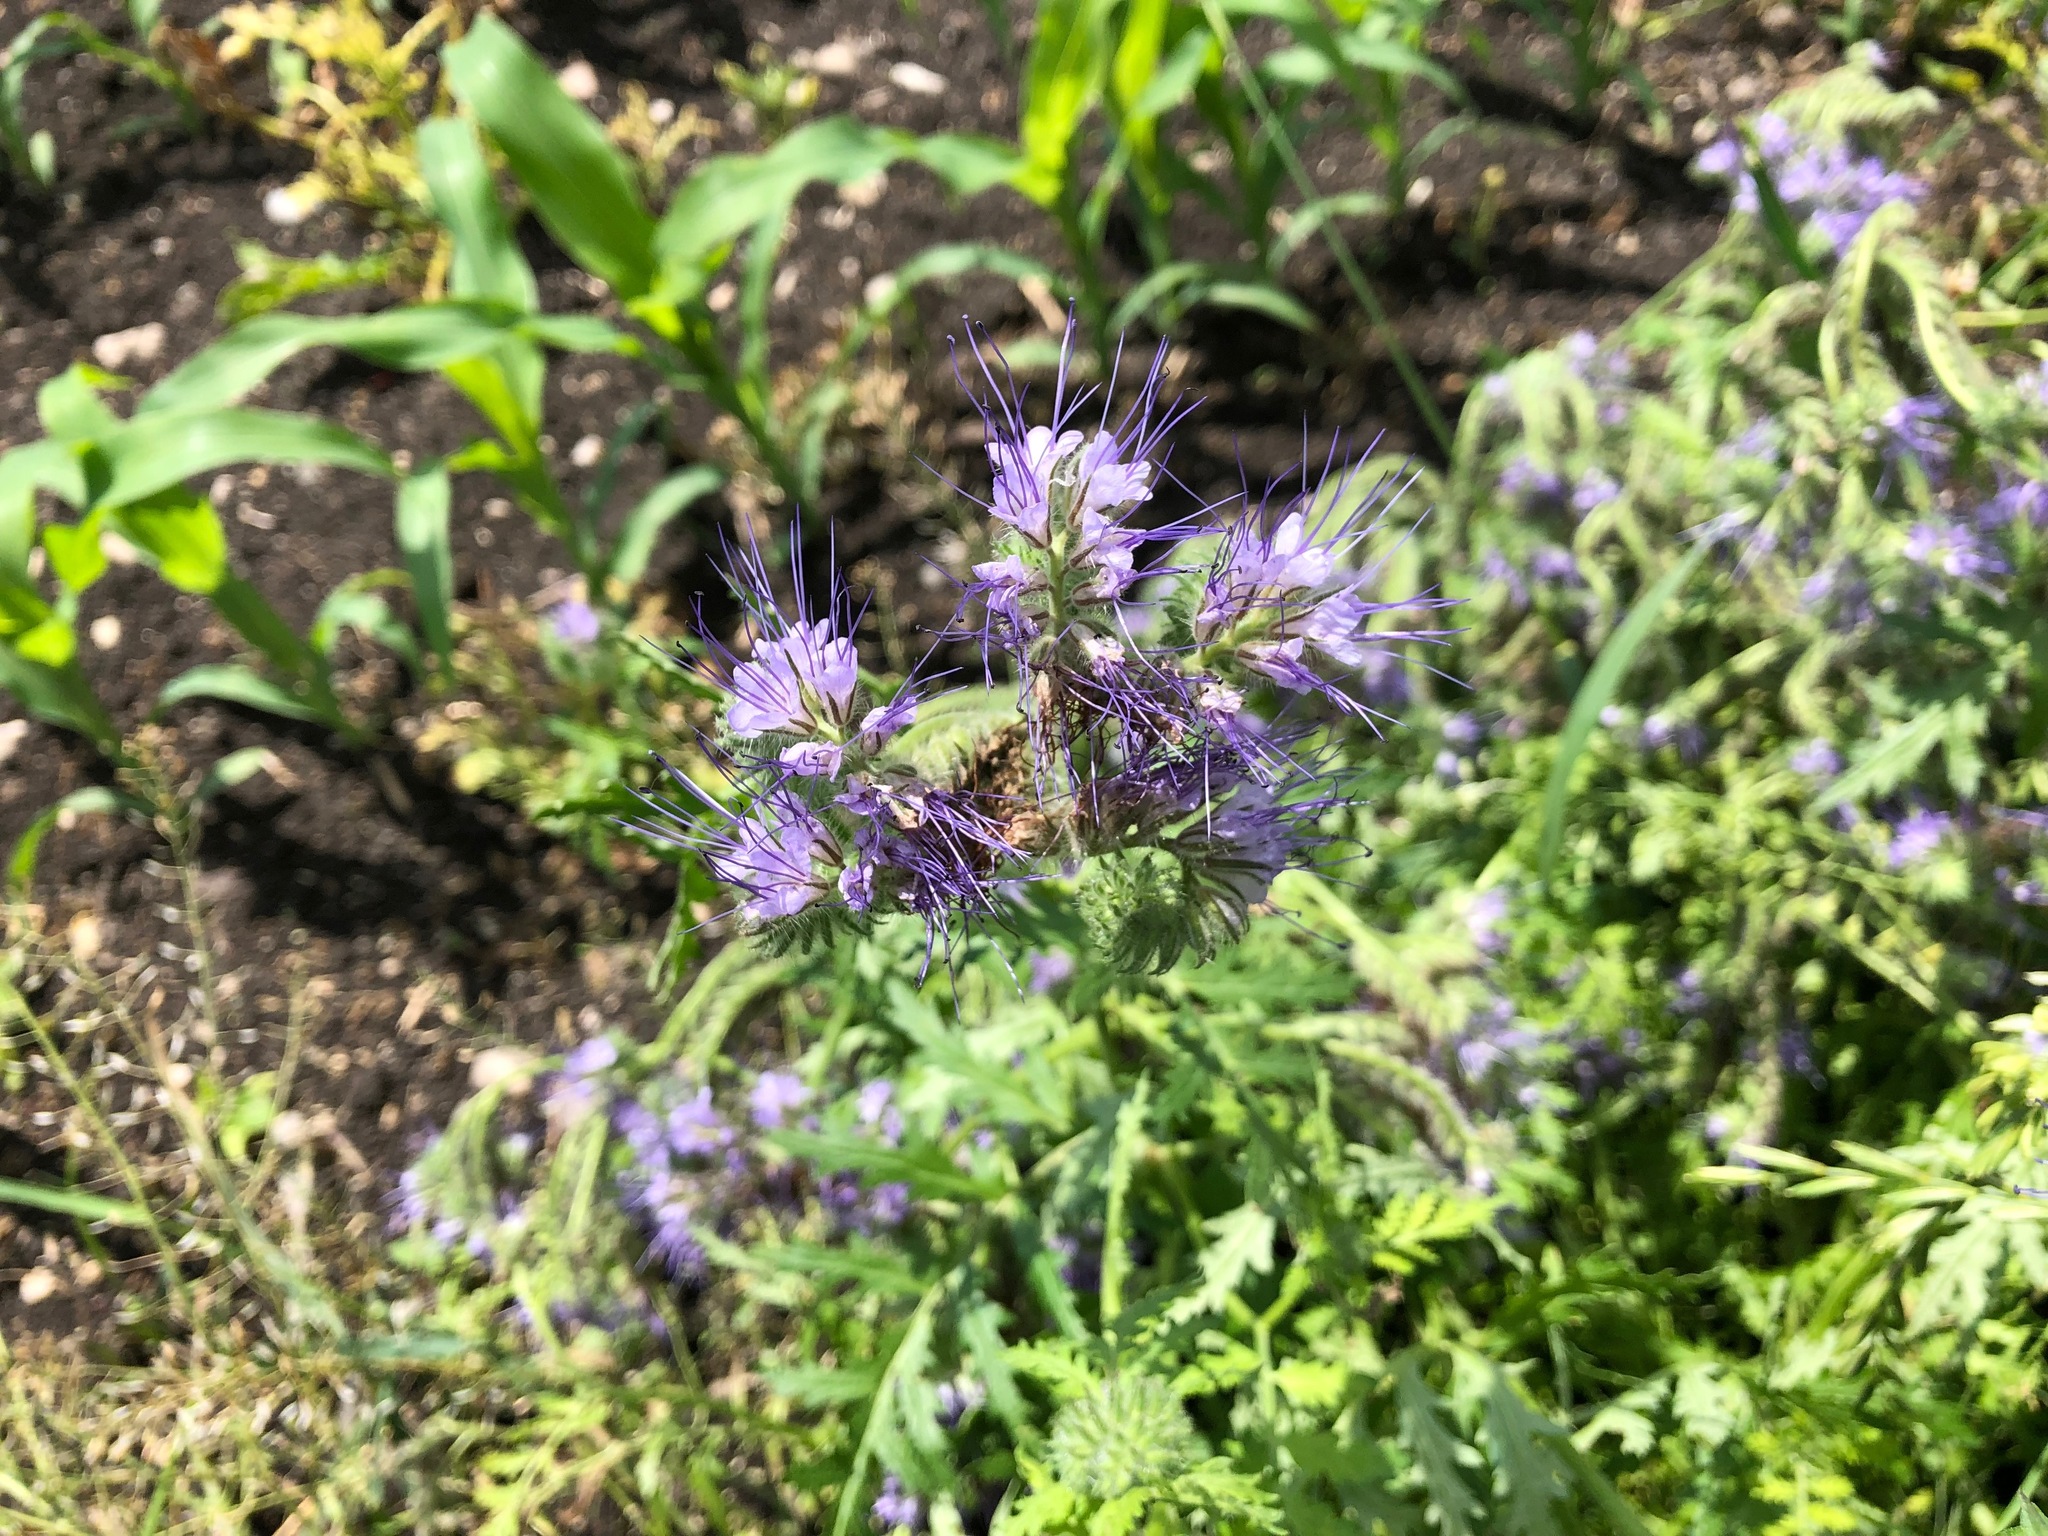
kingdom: Plantae
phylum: Tracheophyta
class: Magnoliopsida
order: Boraginales
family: Hydrophyllaceae
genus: Phacelia
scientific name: Phacelia tanacetifolia
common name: Phacelia
